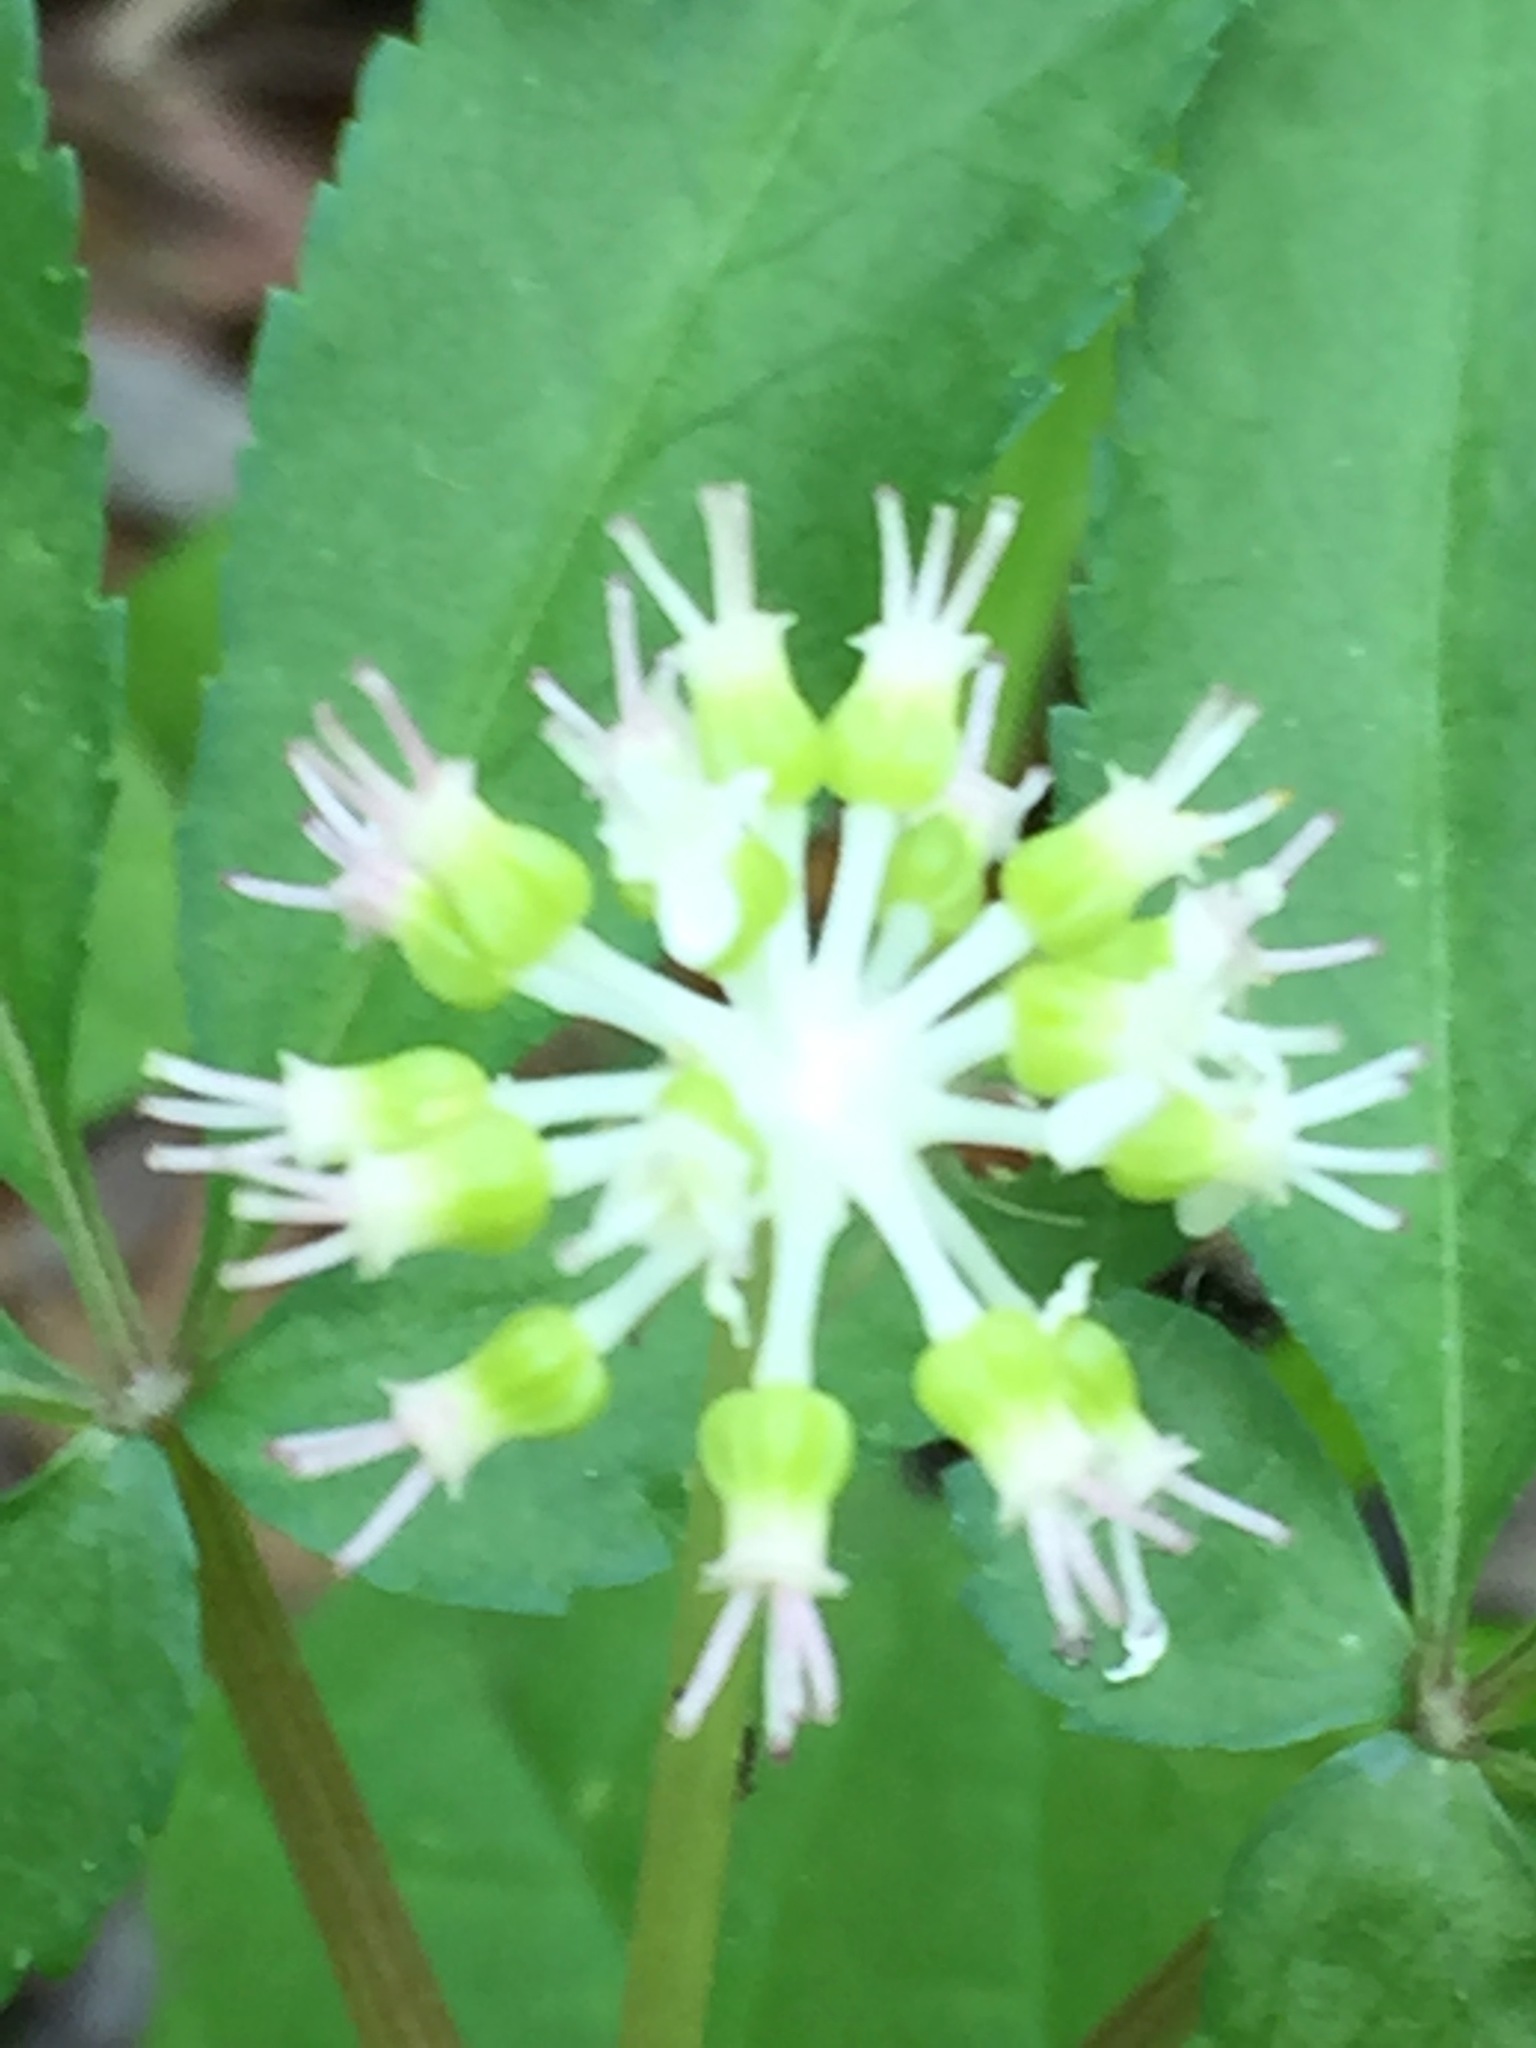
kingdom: Plantae
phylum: Tracheophyta
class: Magnoliopsida
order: Apiales
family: Araliaceae
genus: Panax
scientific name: Panax trifolius
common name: Dwarf ginseng
